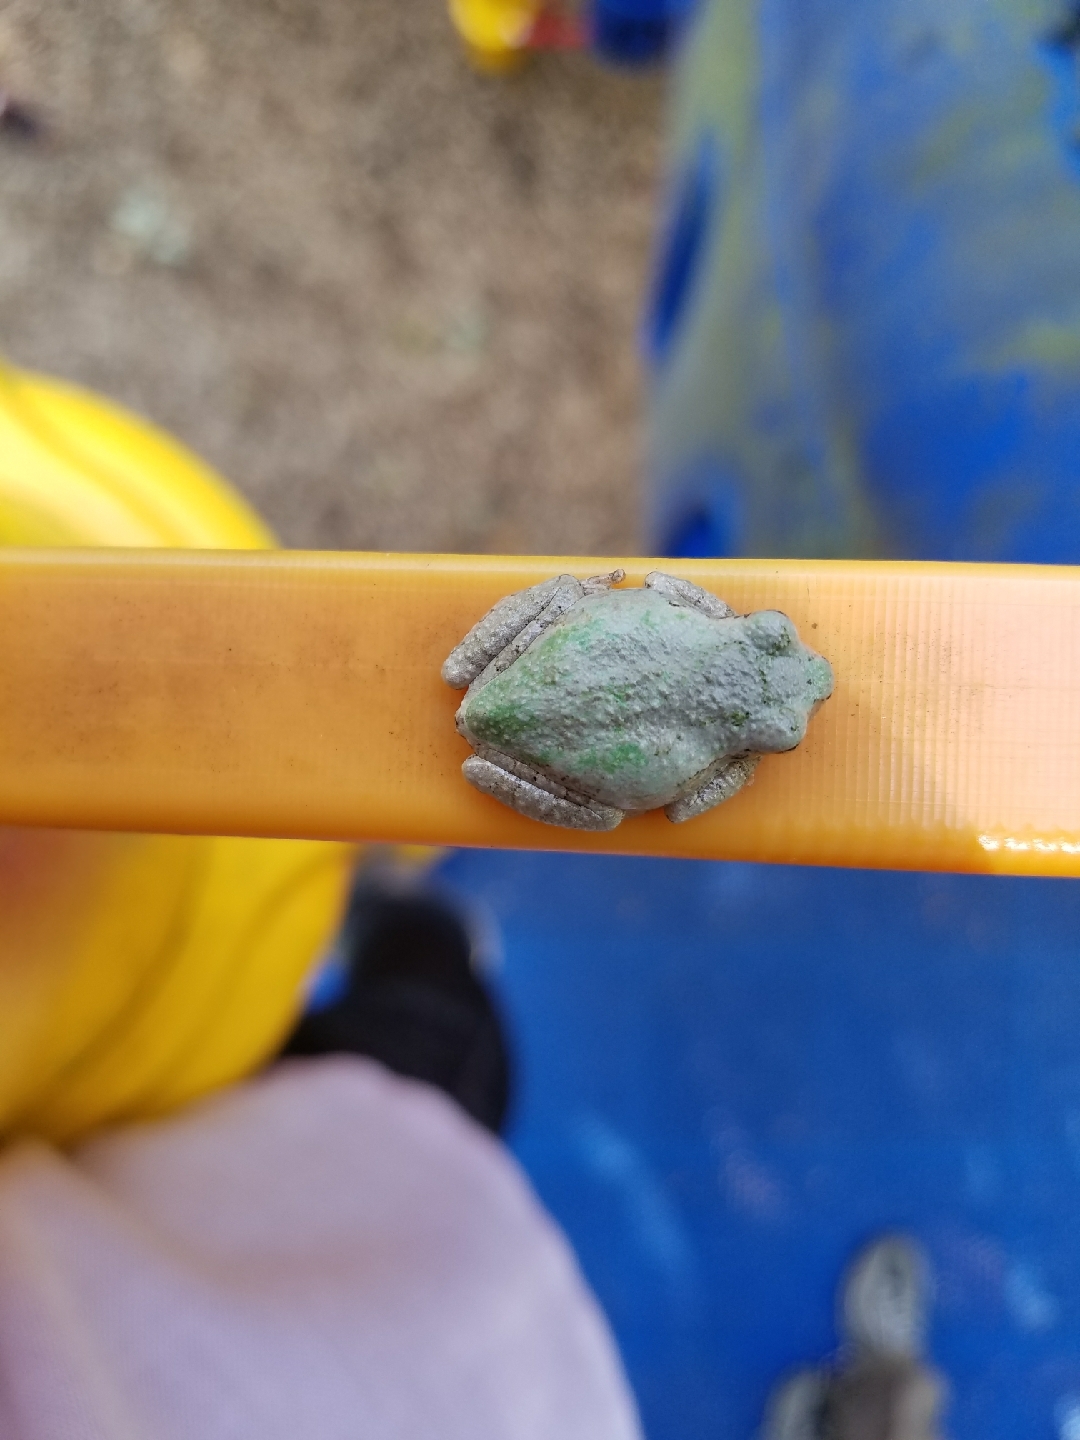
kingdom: Animalia
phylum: Chordata
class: Amphibia
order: Anura
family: Hylidae
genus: Dryophytes
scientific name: Dryophytes versicolor
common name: Gray treefrog
